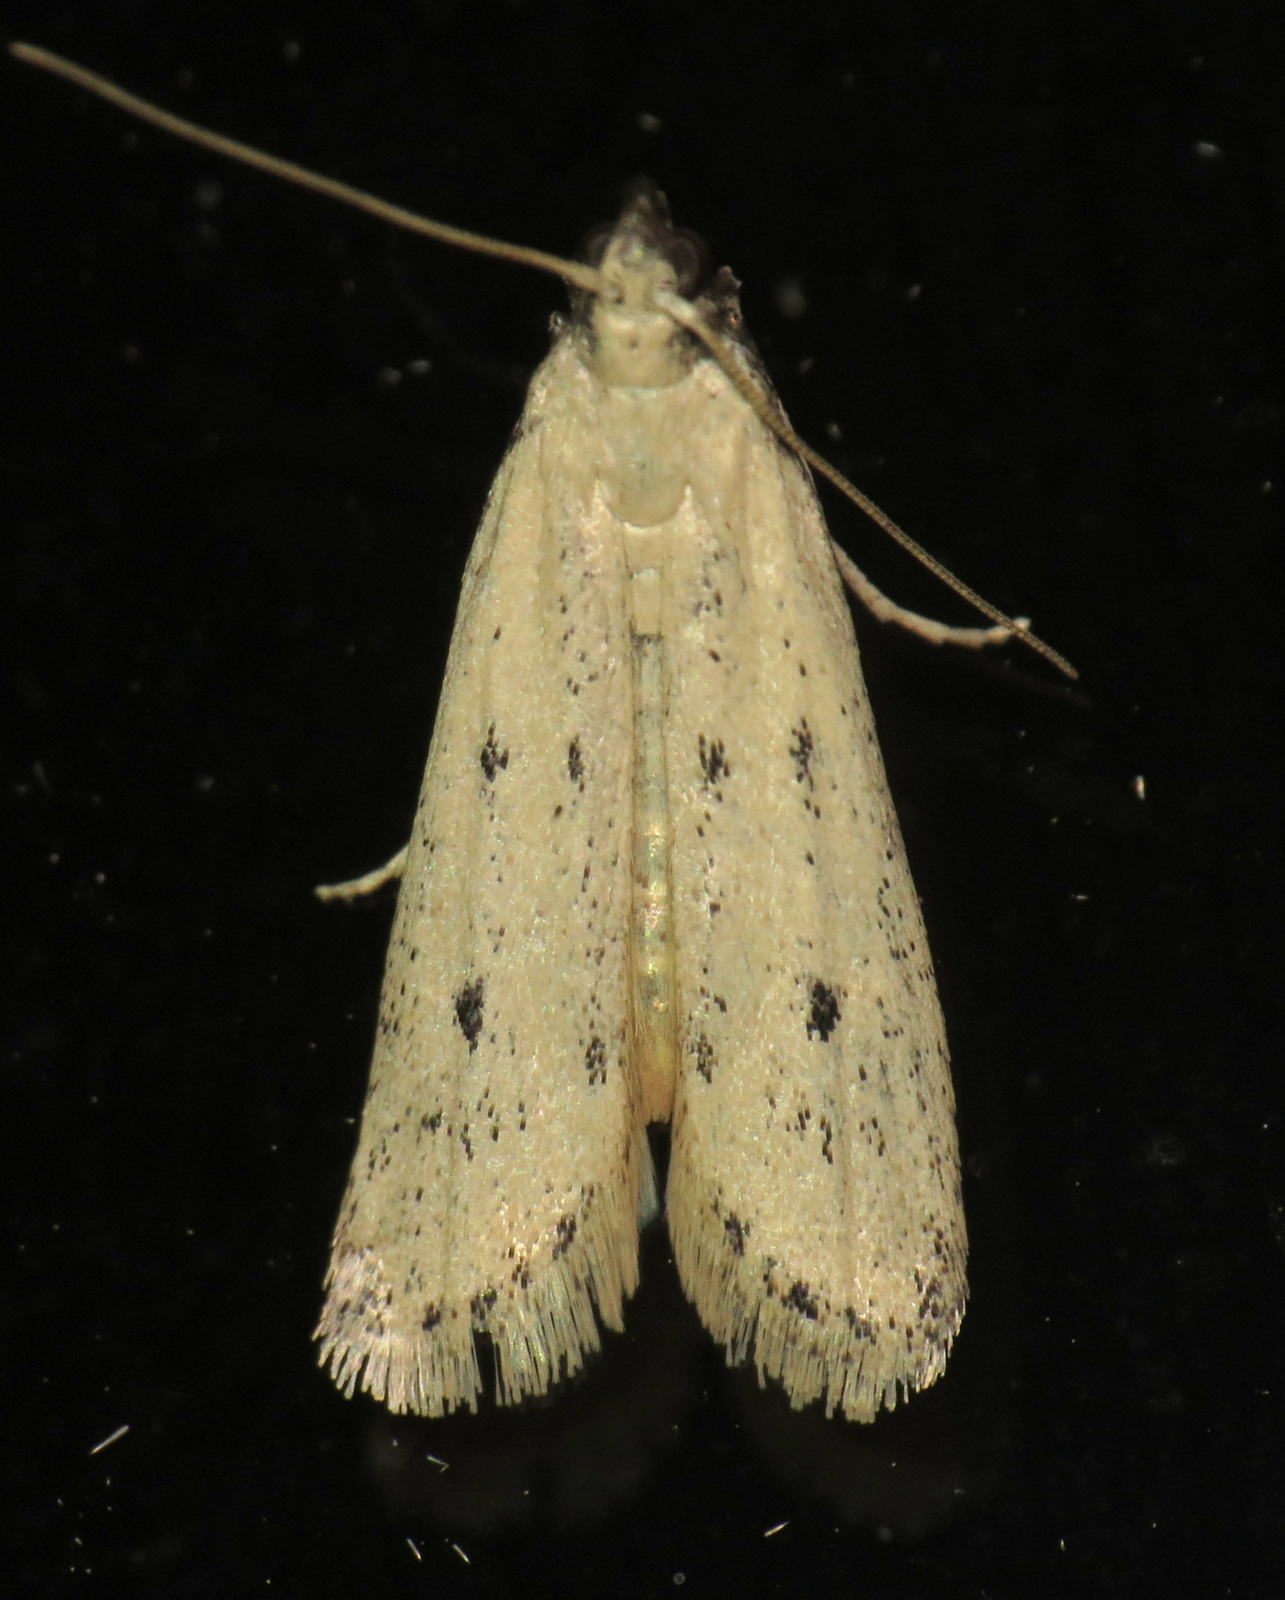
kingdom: Animalia
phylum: Arthropoda
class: Insecta
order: Lepidoptera
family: Pyralidae
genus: Sosipatra
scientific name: Sosipatra rileyella
